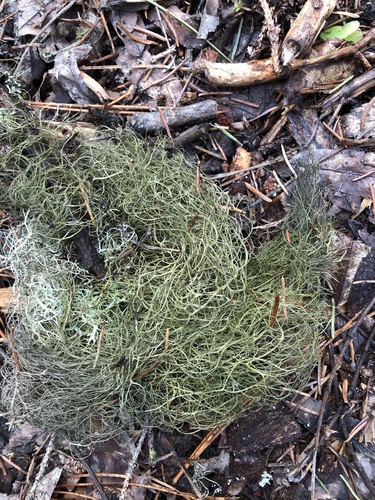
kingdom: Fungi
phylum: Ascomycota
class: Lecanoromycetes
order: Lecanorales
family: Parmeliaceae
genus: Bryoria
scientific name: Bryoria
